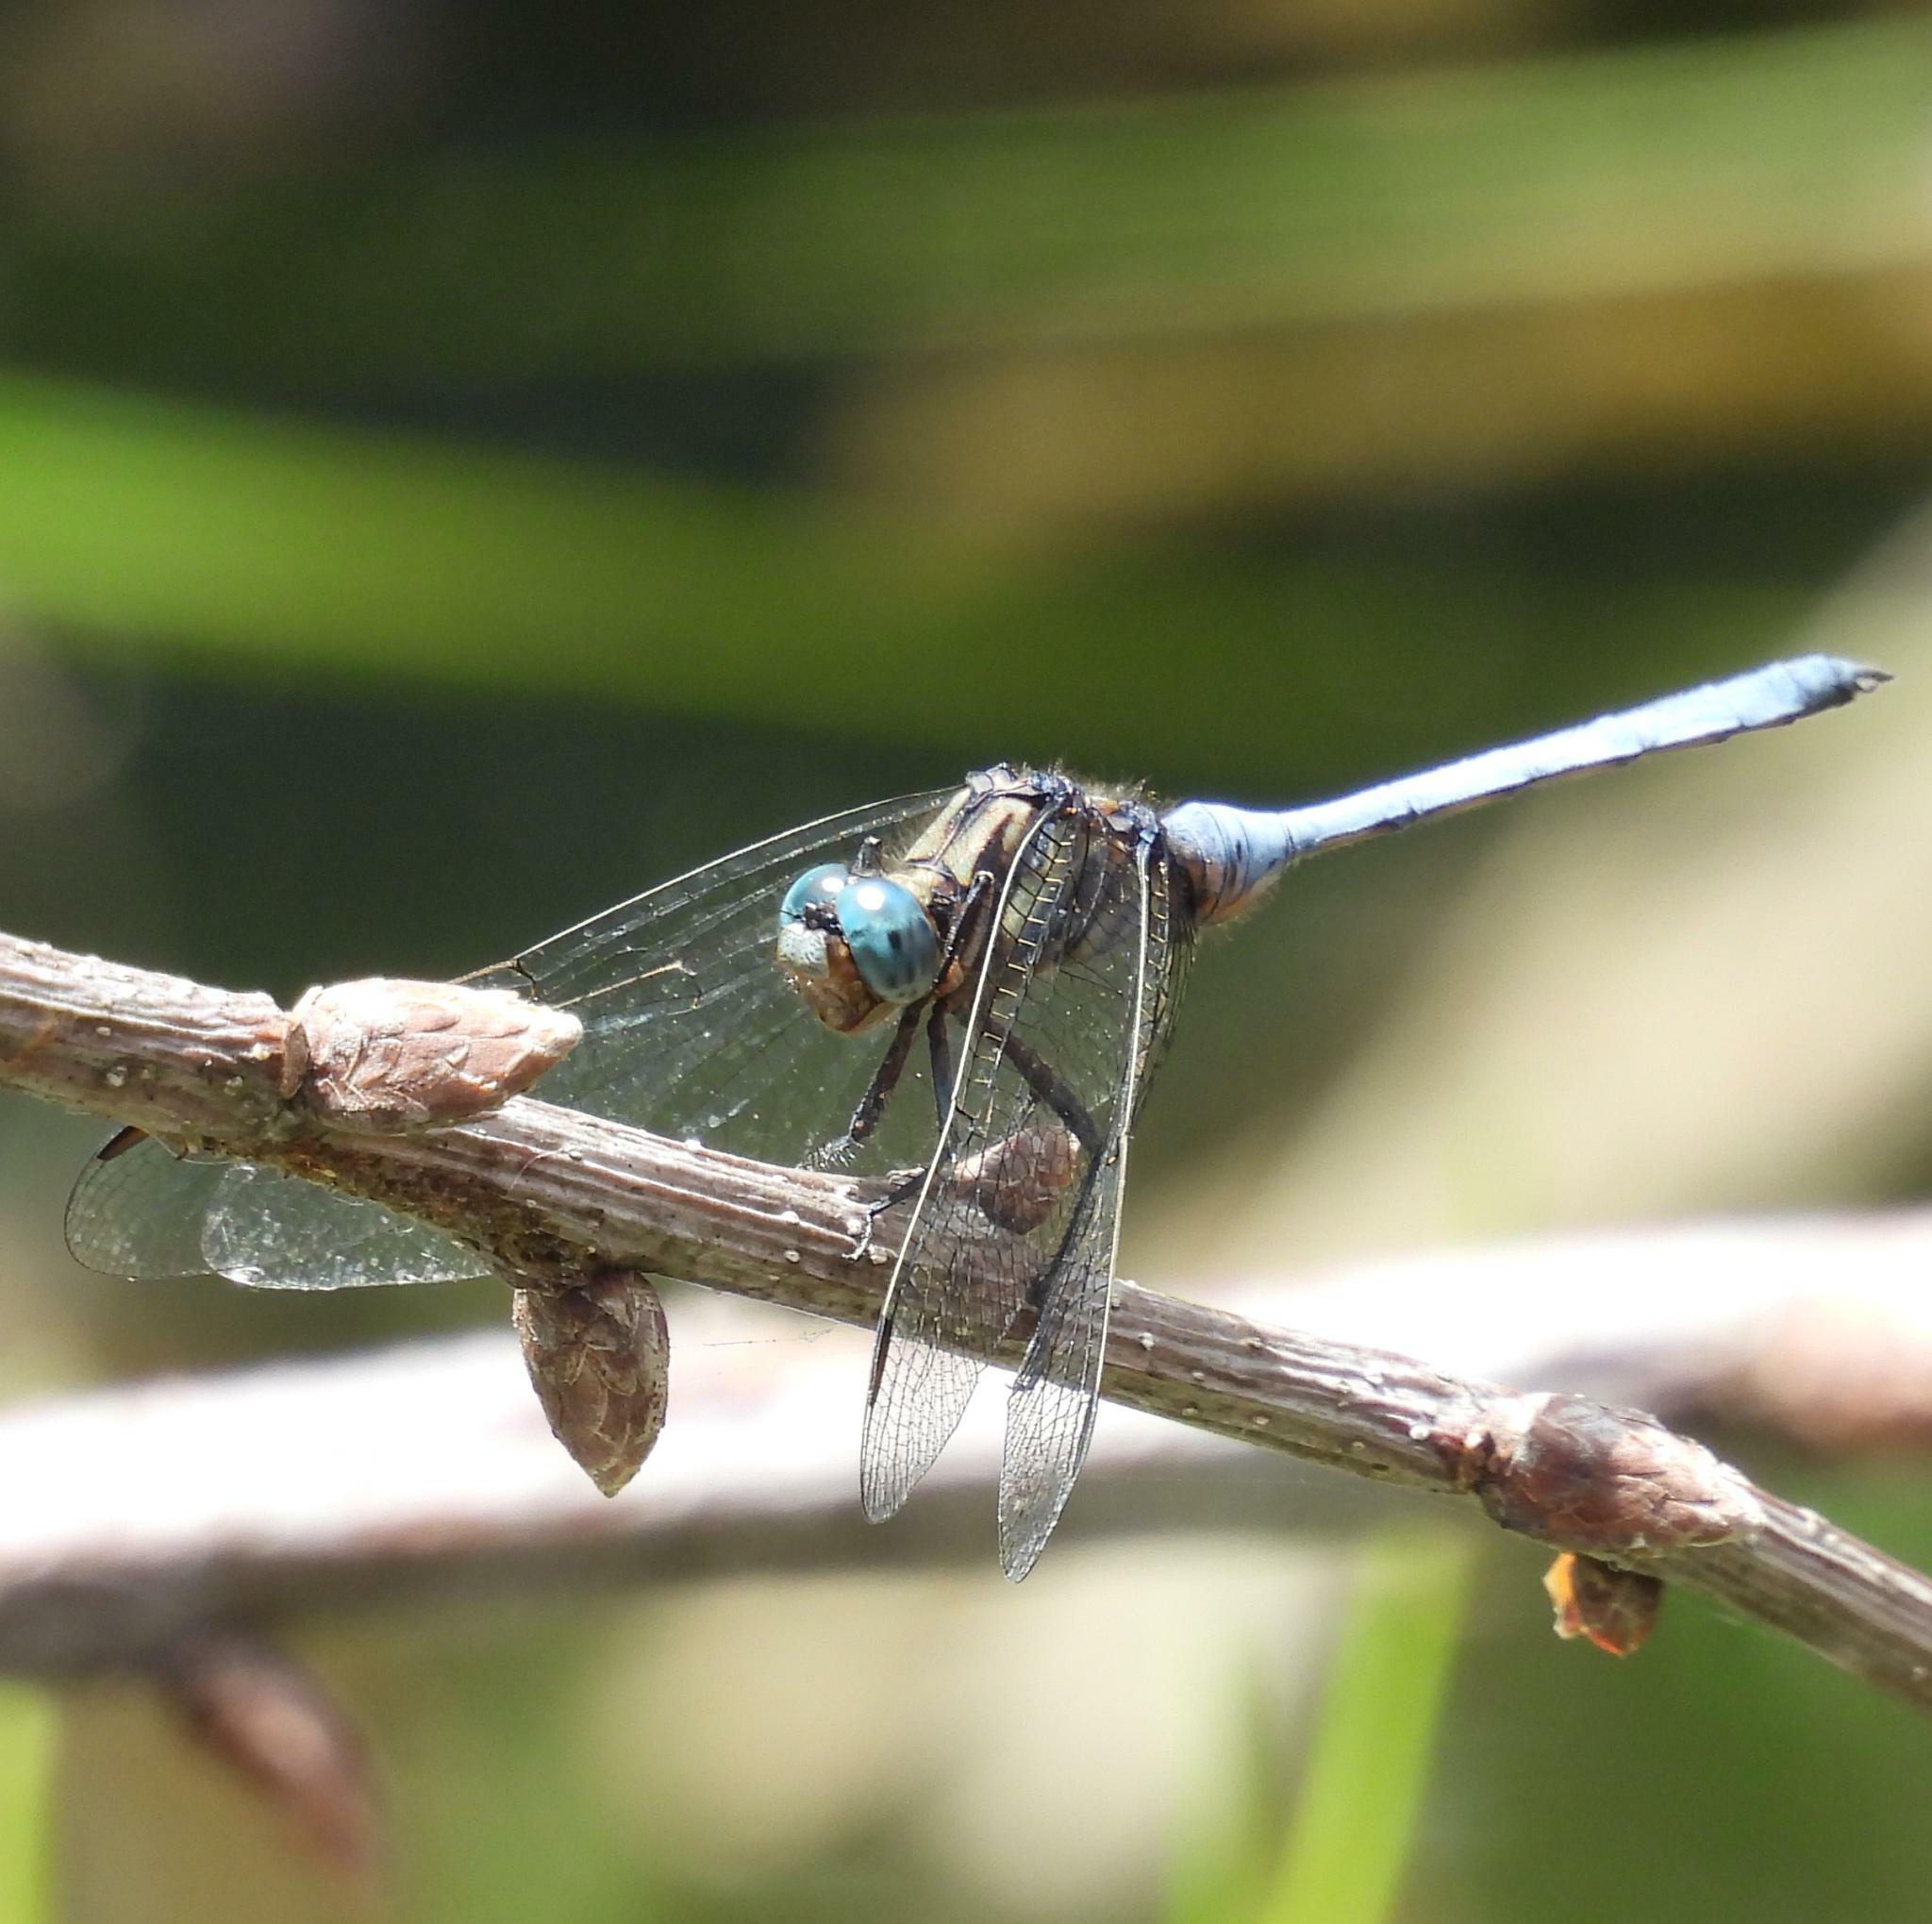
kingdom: Animalia
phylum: Arthropoda
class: Insecta
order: Odonata
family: Libellulidae
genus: Orthetrum
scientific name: Orthetrum julia
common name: Julia skimmer
